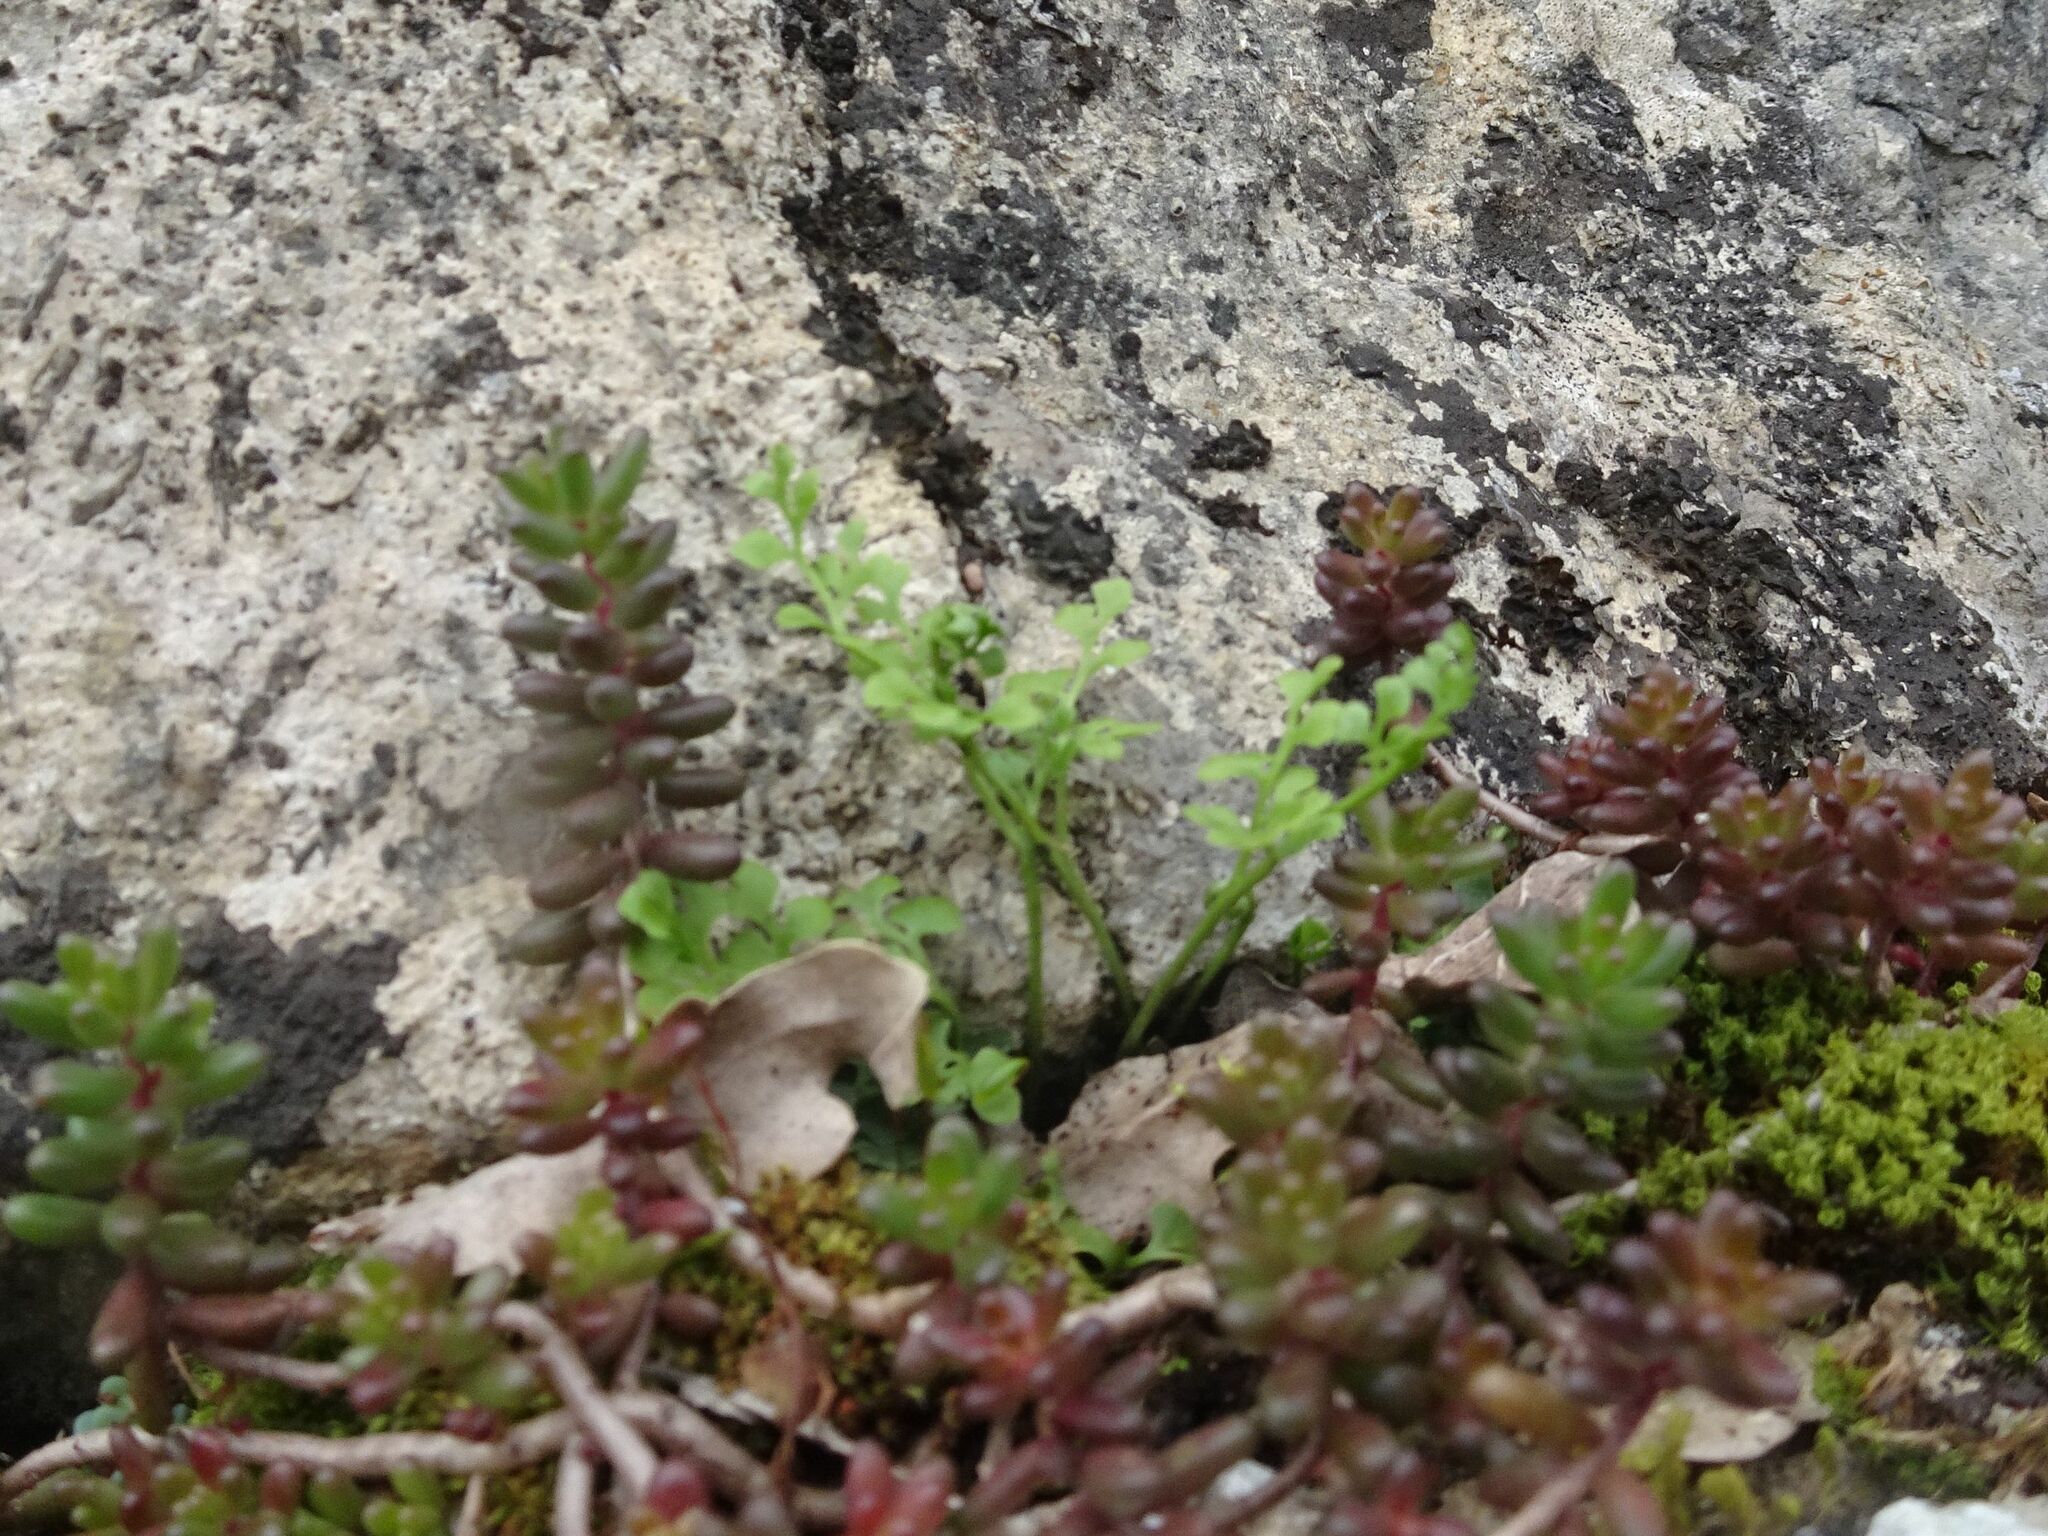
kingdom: Plantae
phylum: Tracheophyta
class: Polypodiopsida
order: Polypodiales
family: Aspleniaceae
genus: Asplenium
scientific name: Asplenium ruta-muraria
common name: Wall-rue
